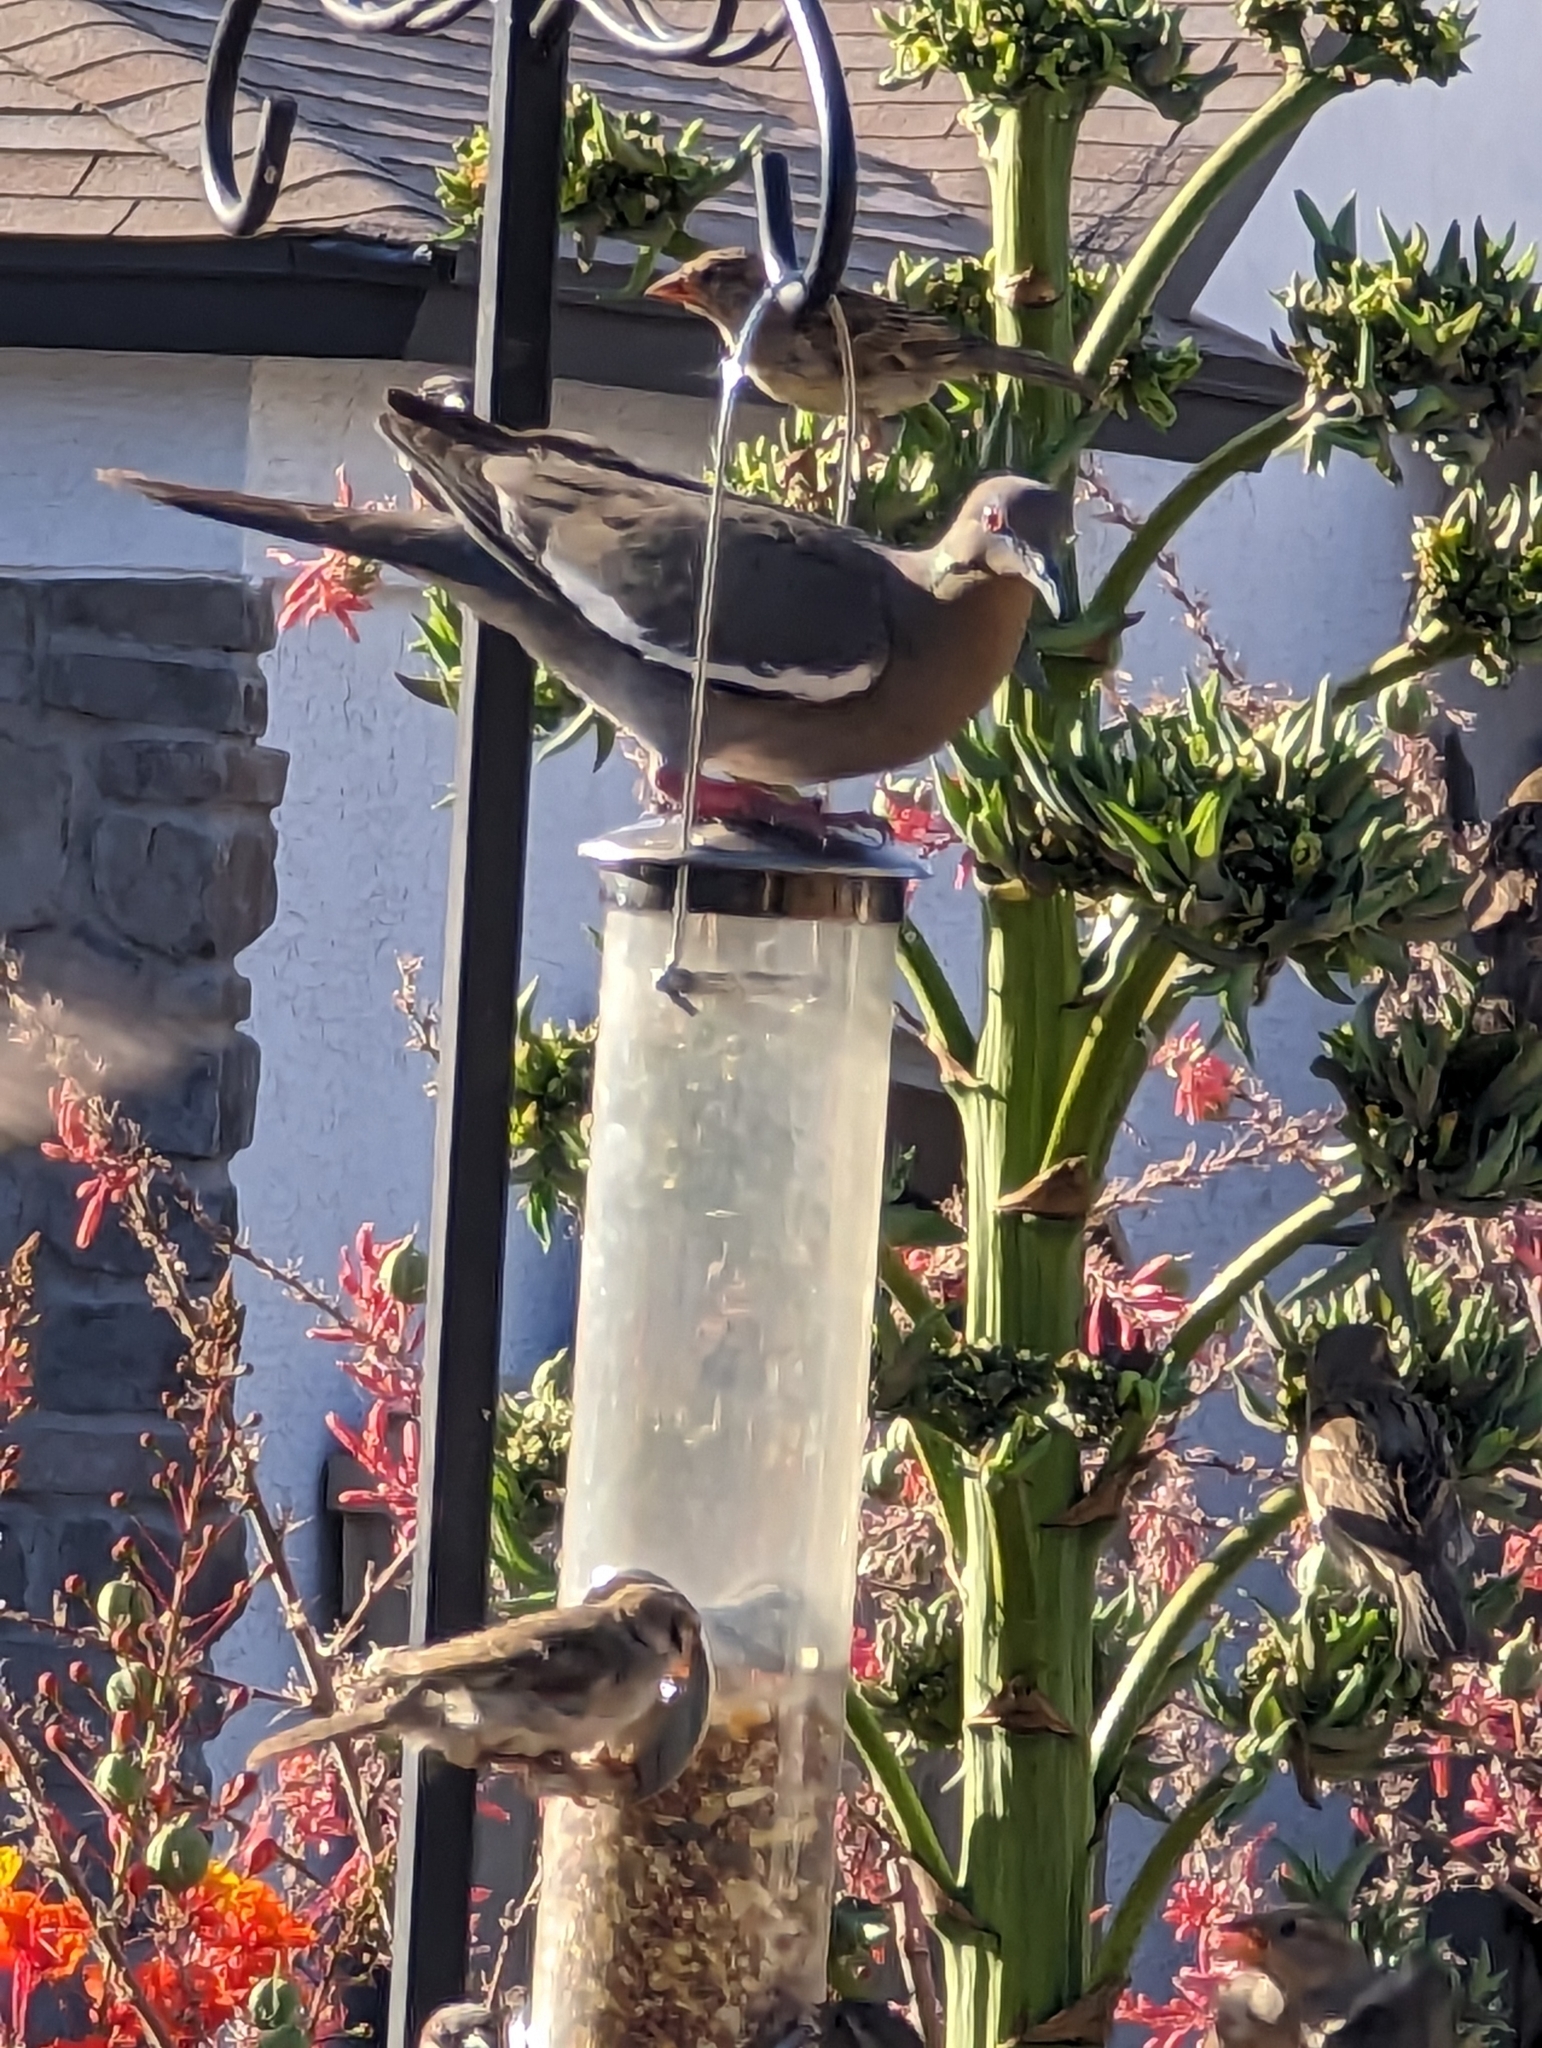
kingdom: Animalia
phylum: Chordata
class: Aves
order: Columbiformes
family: Columbidae
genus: Zenaida
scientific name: Zenaida asiatica
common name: White-winged dove
